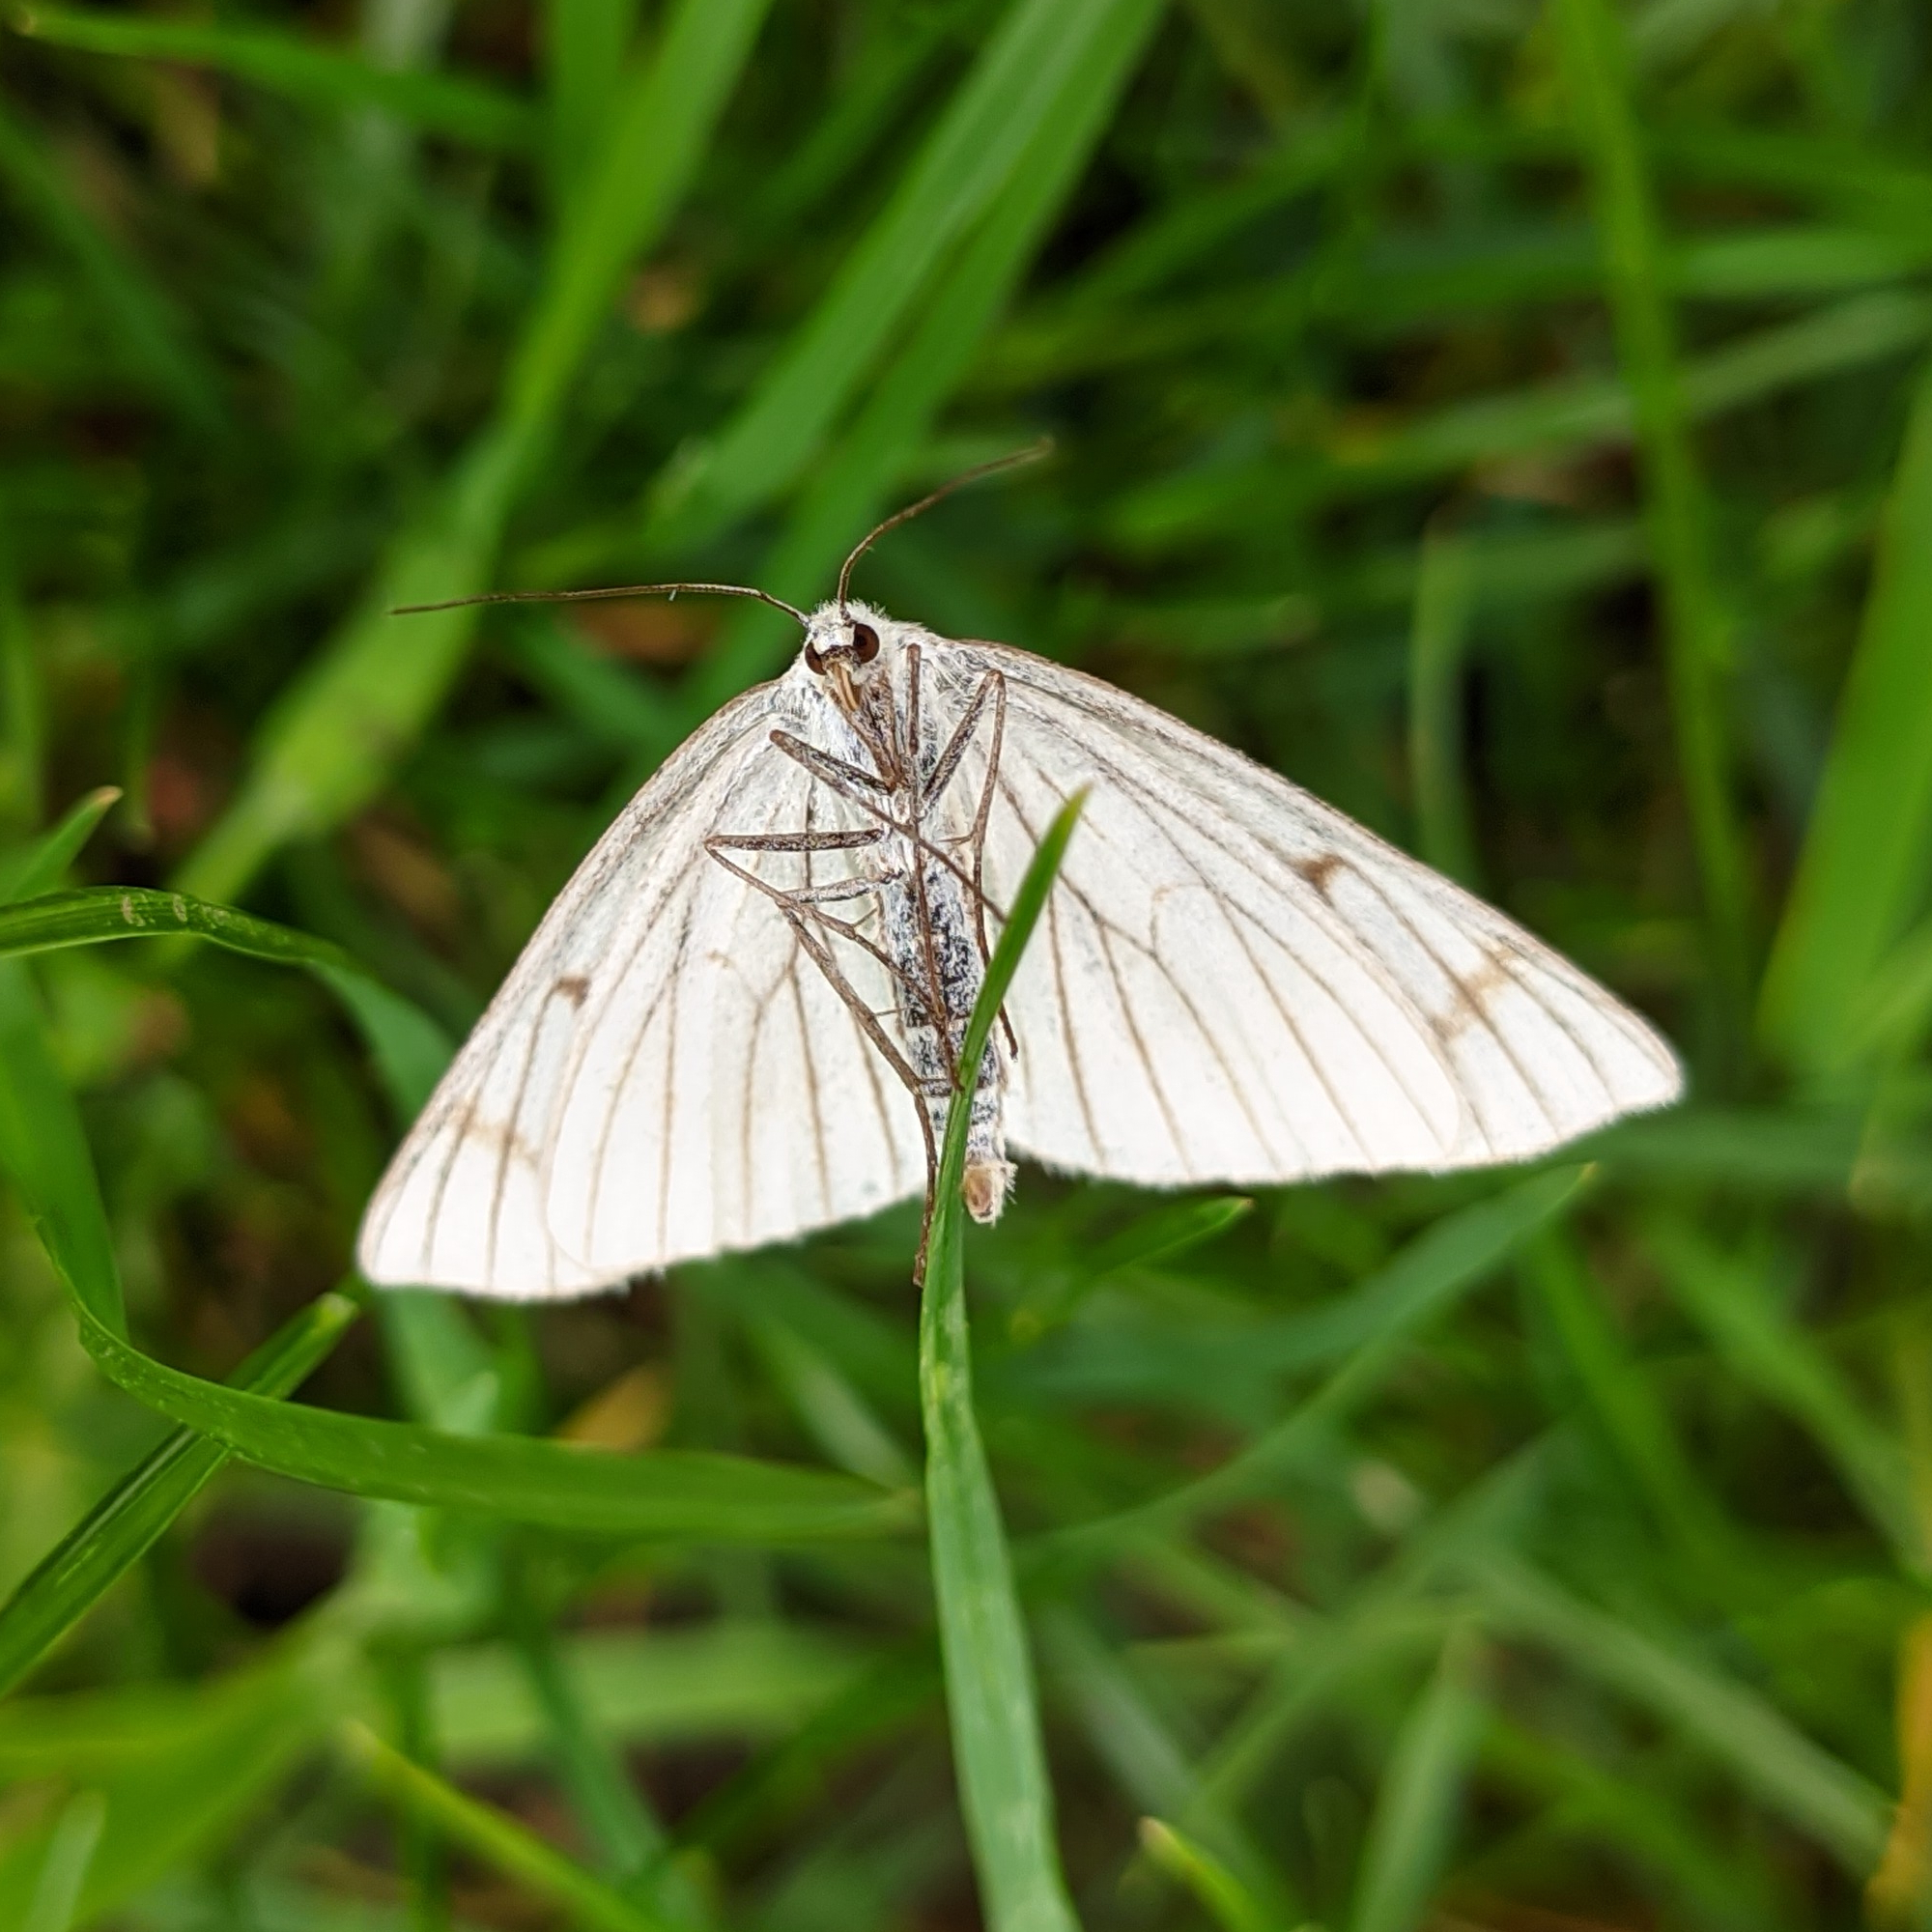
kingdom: Animalia
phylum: Arthropoda
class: Insecta
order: Lepidoptera
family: Geometridae
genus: Siona
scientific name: Siona lineata
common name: Black-veined moth
